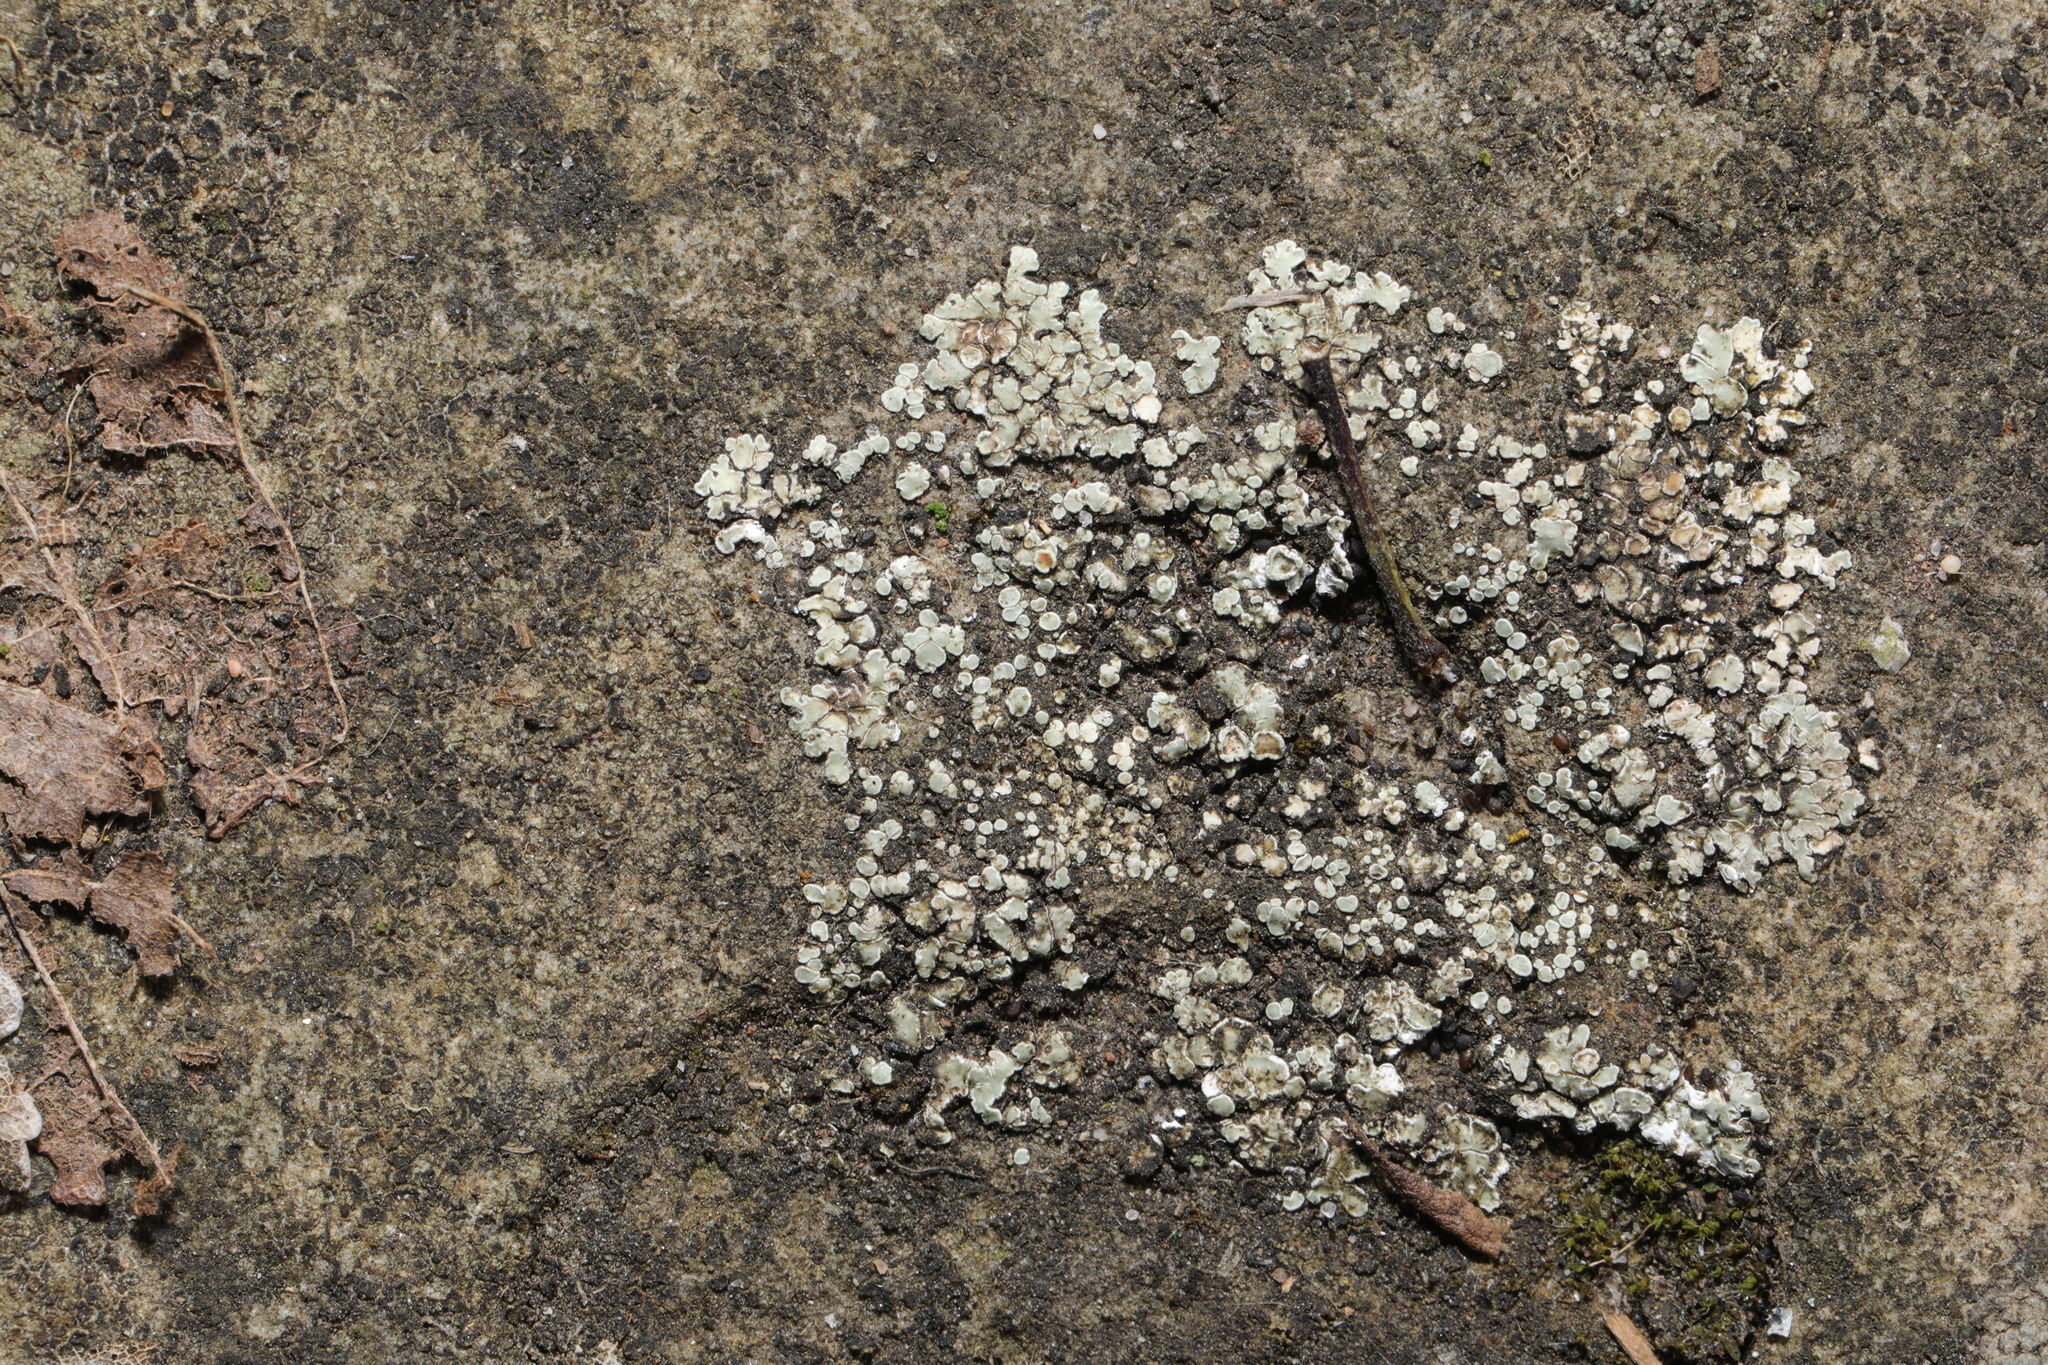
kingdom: Fungi
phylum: Ascomycota
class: Lecanoromycetes
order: Lecanorales
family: Lecanoraceae
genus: Protoparmeliopsis
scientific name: Protoparmeliopsis muralis
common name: Stonewall rim lichen
